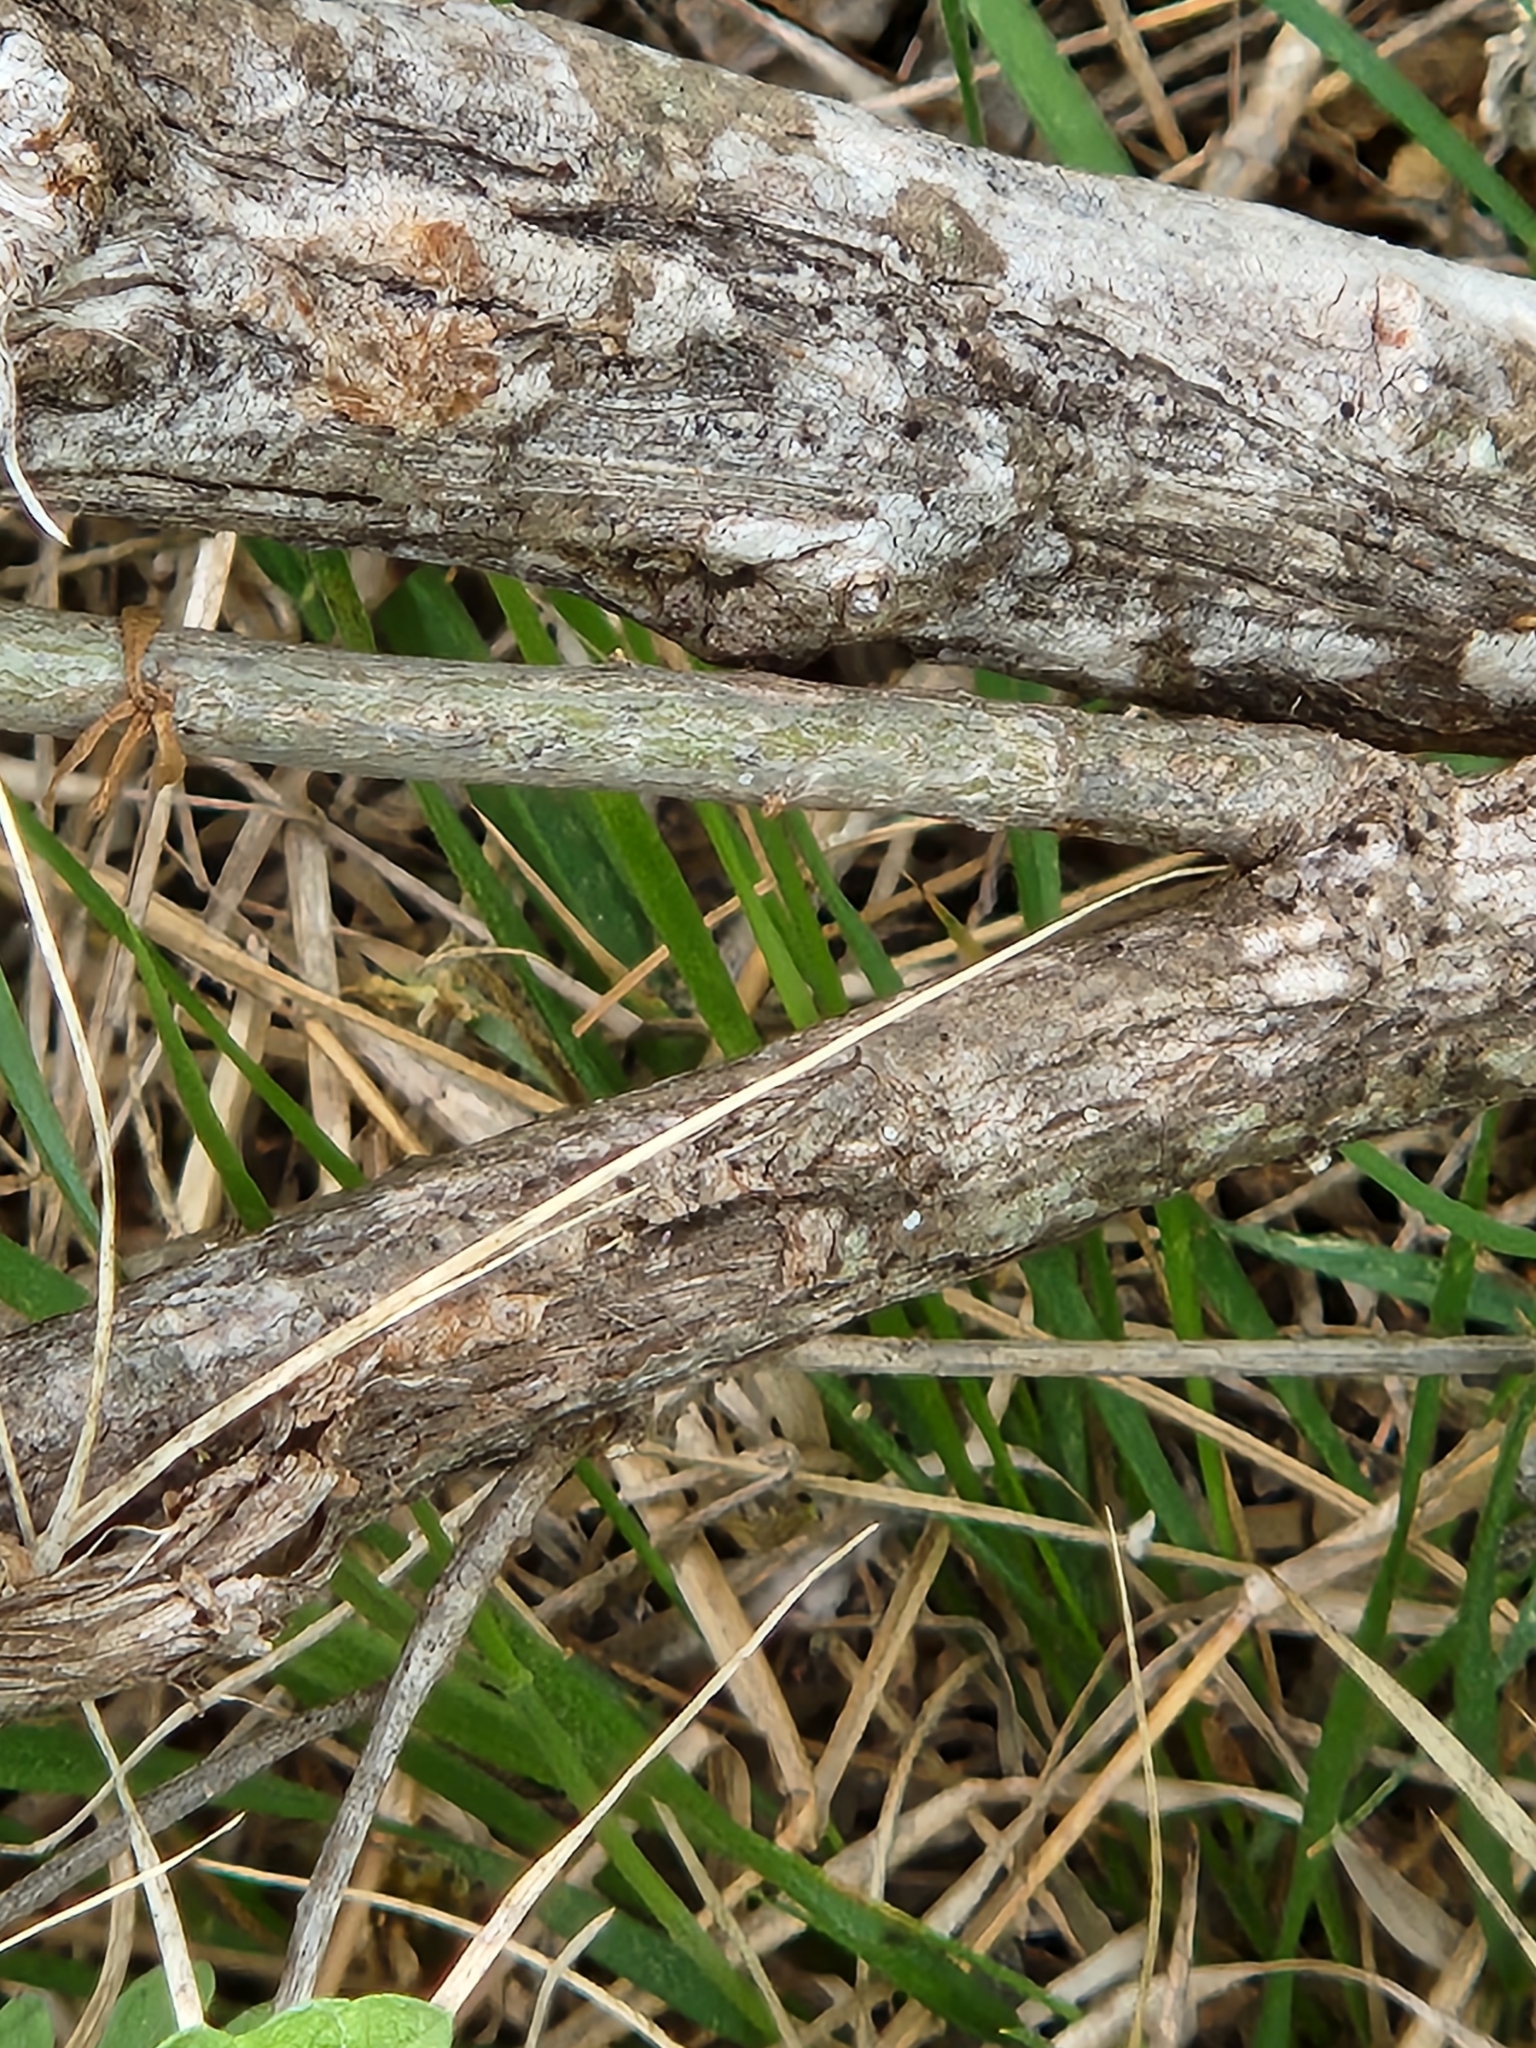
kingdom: Plantae
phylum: Tracheophyta
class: Magnoliopsida
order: Asterales
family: Asteraceae
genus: Baccharis
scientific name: Baccharis neglecta
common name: Roosevelt-weed
